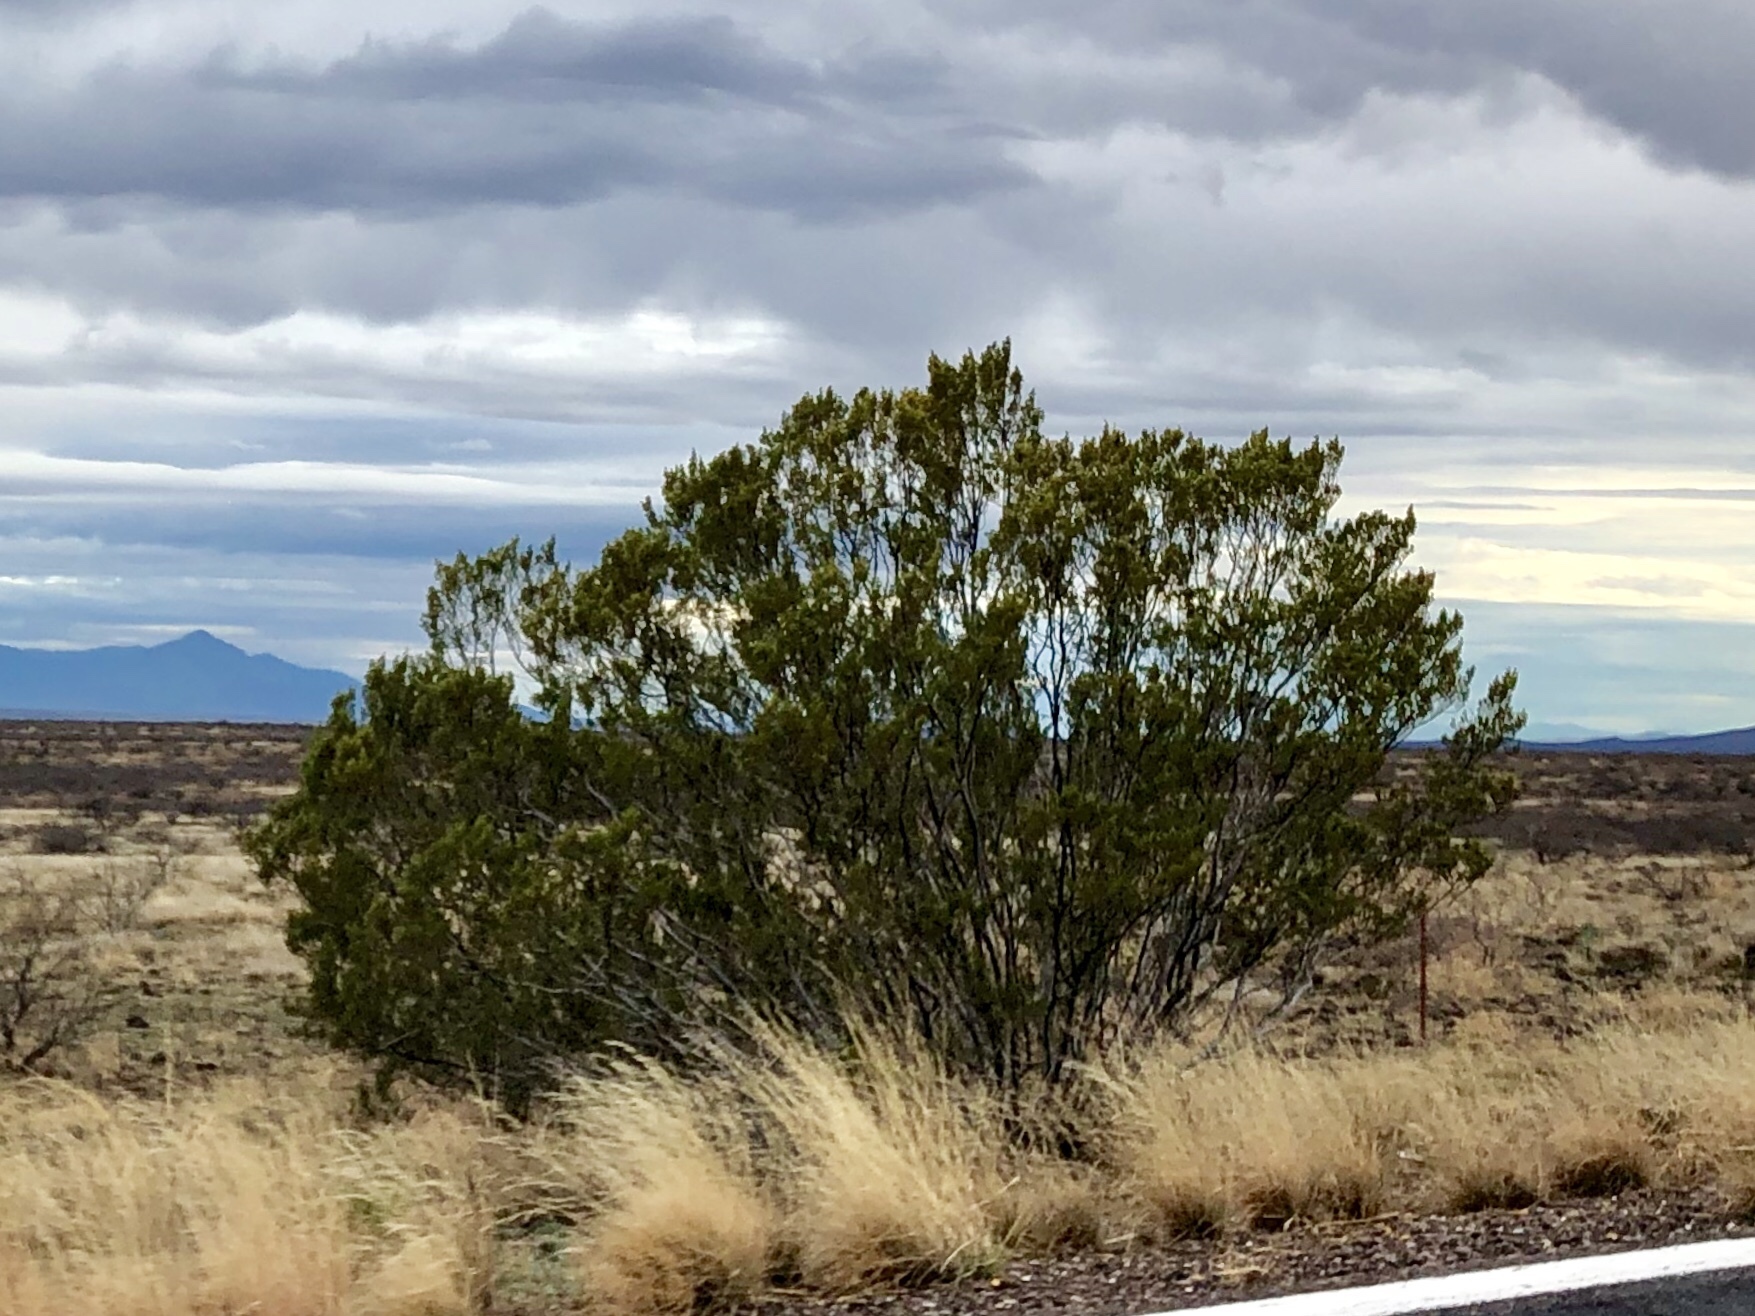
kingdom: Plantae
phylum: Tracheophyta
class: Magnoliopsida
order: Zygophyllales
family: Zygophyllaceae
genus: Larrea
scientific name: Larrea tridentata
